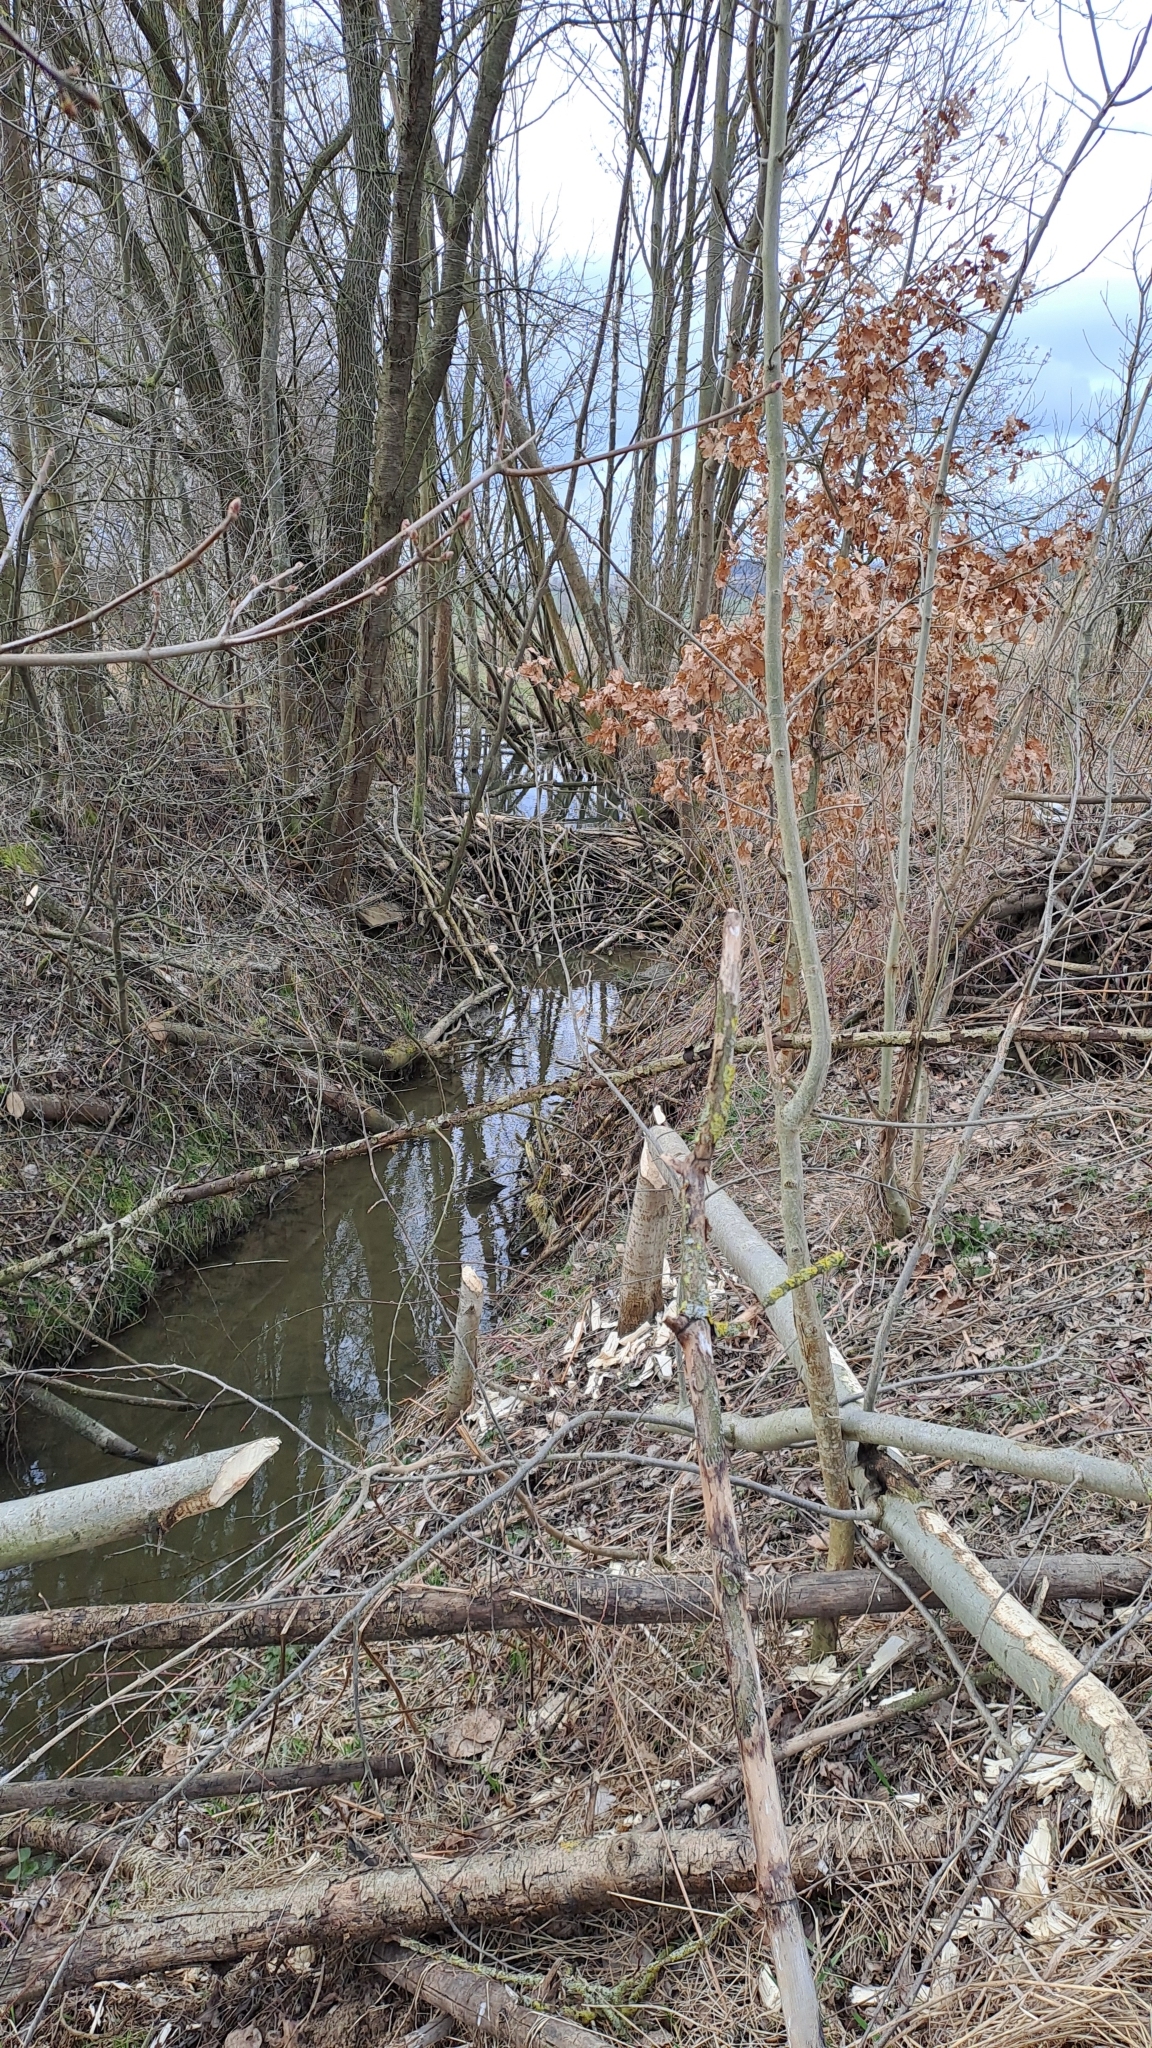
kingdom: Animalia
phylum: Chordata
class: Mammalia
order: Rodentia
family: Castoridae
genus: Castor
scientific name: Castor fiber
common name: Eurasian beaver
